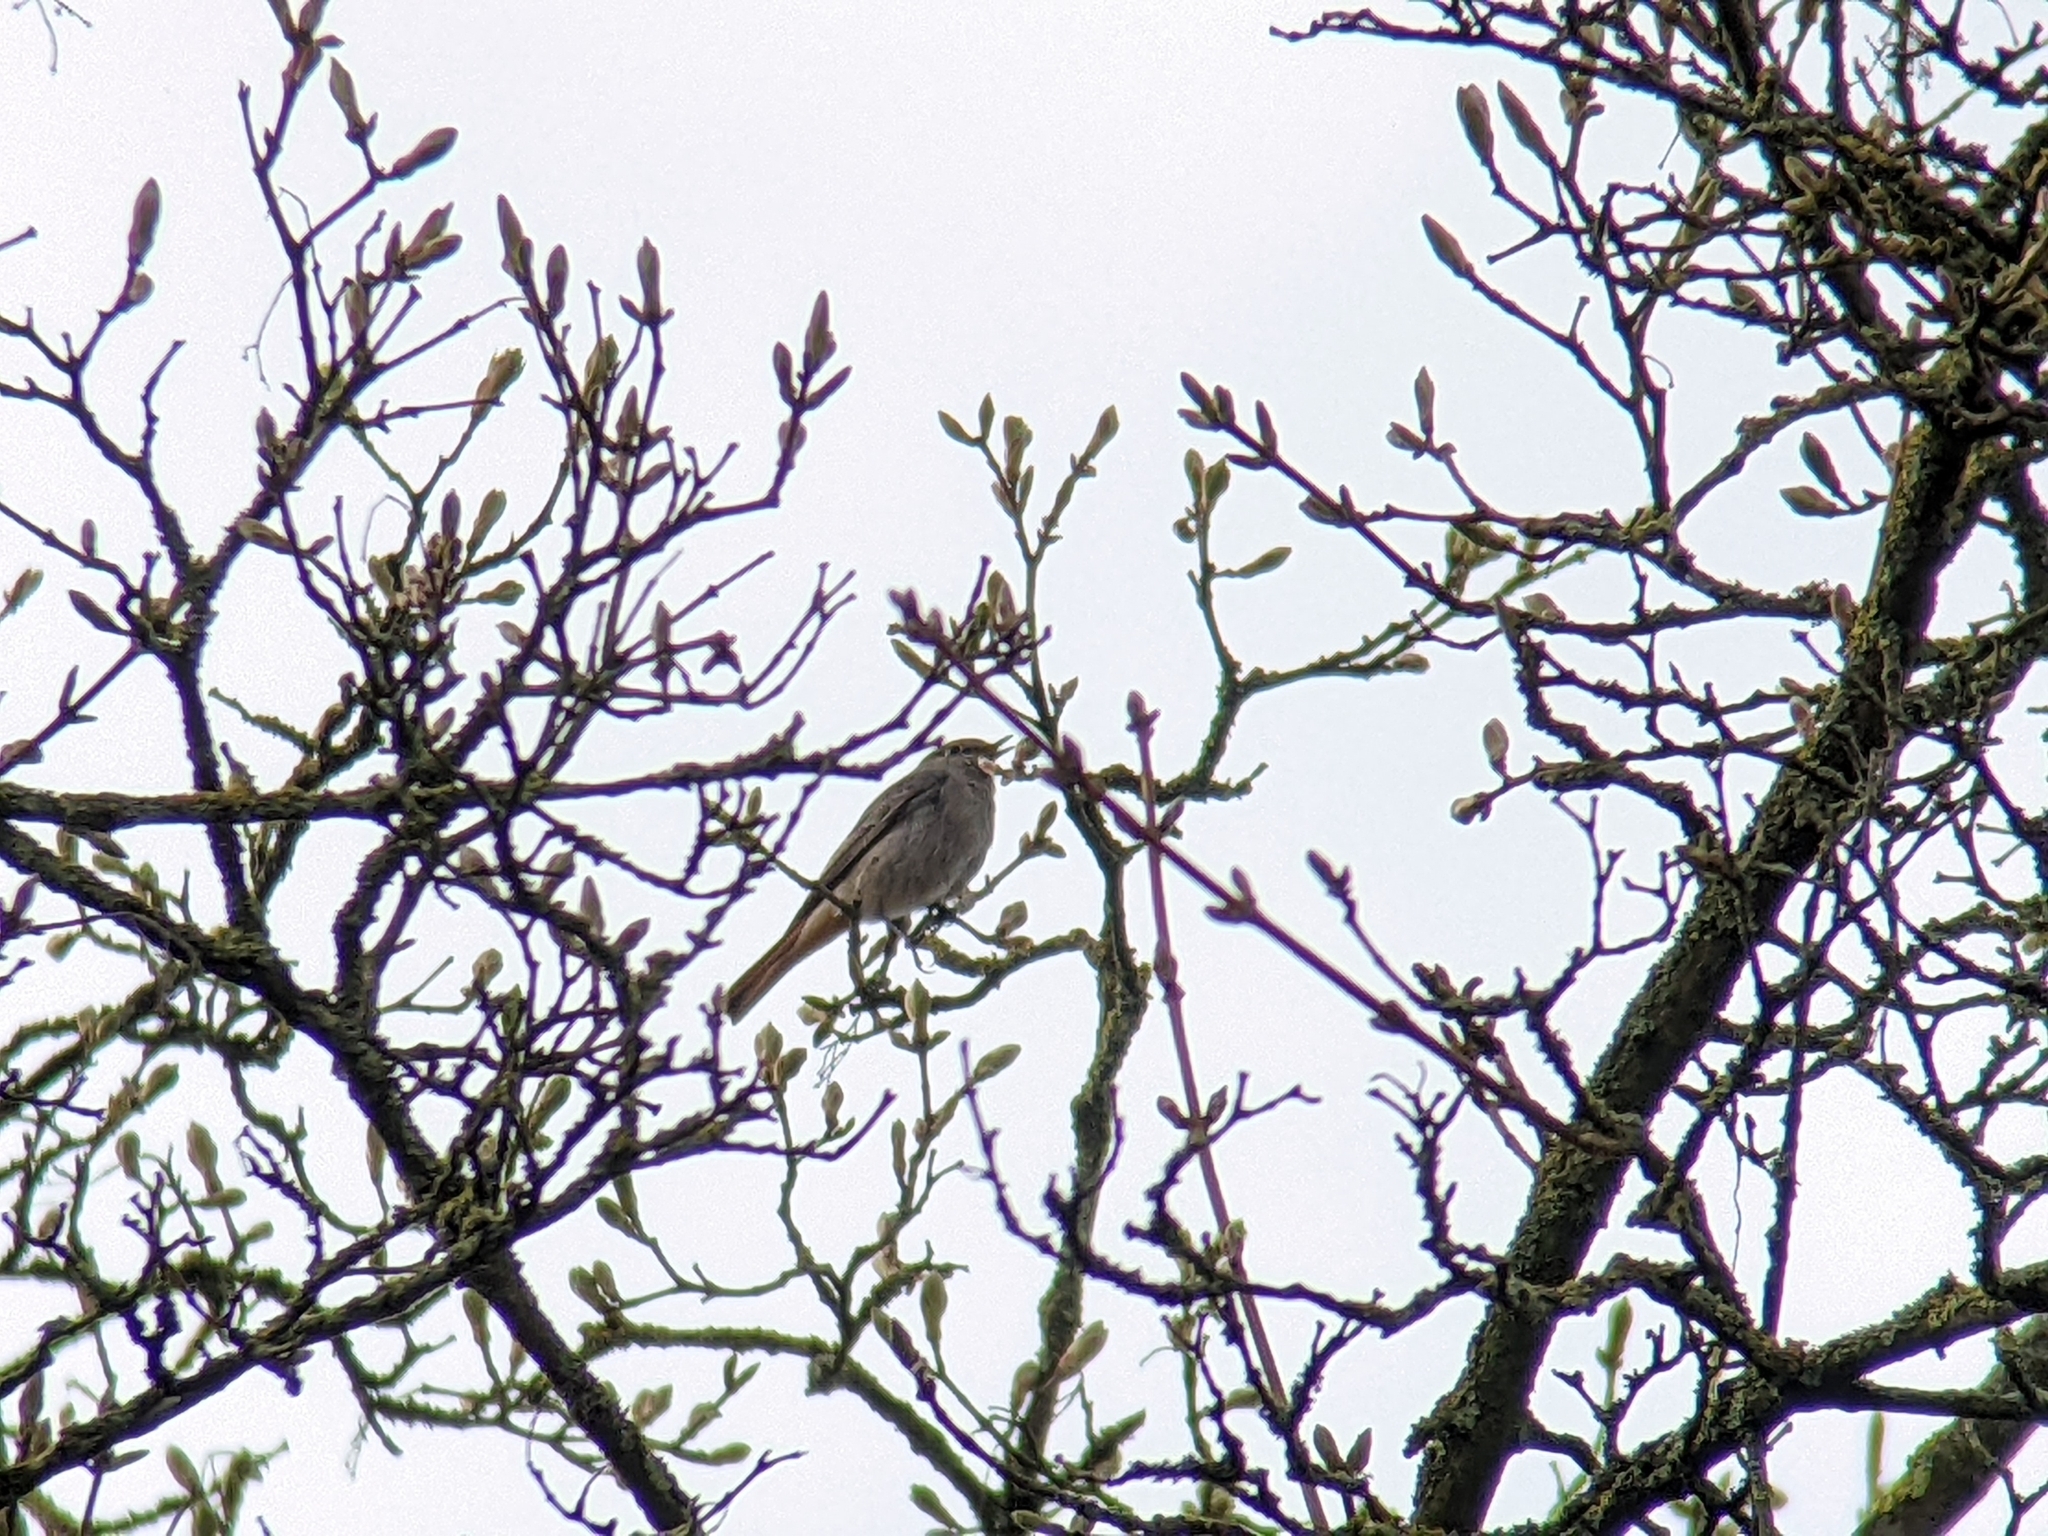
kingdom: Animalia
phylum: Chordata
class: Aves
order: Passeriformes
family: Muscicapidae
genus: Phoenicurus
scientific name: Phoenicurus ochruros
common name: Black redstart
